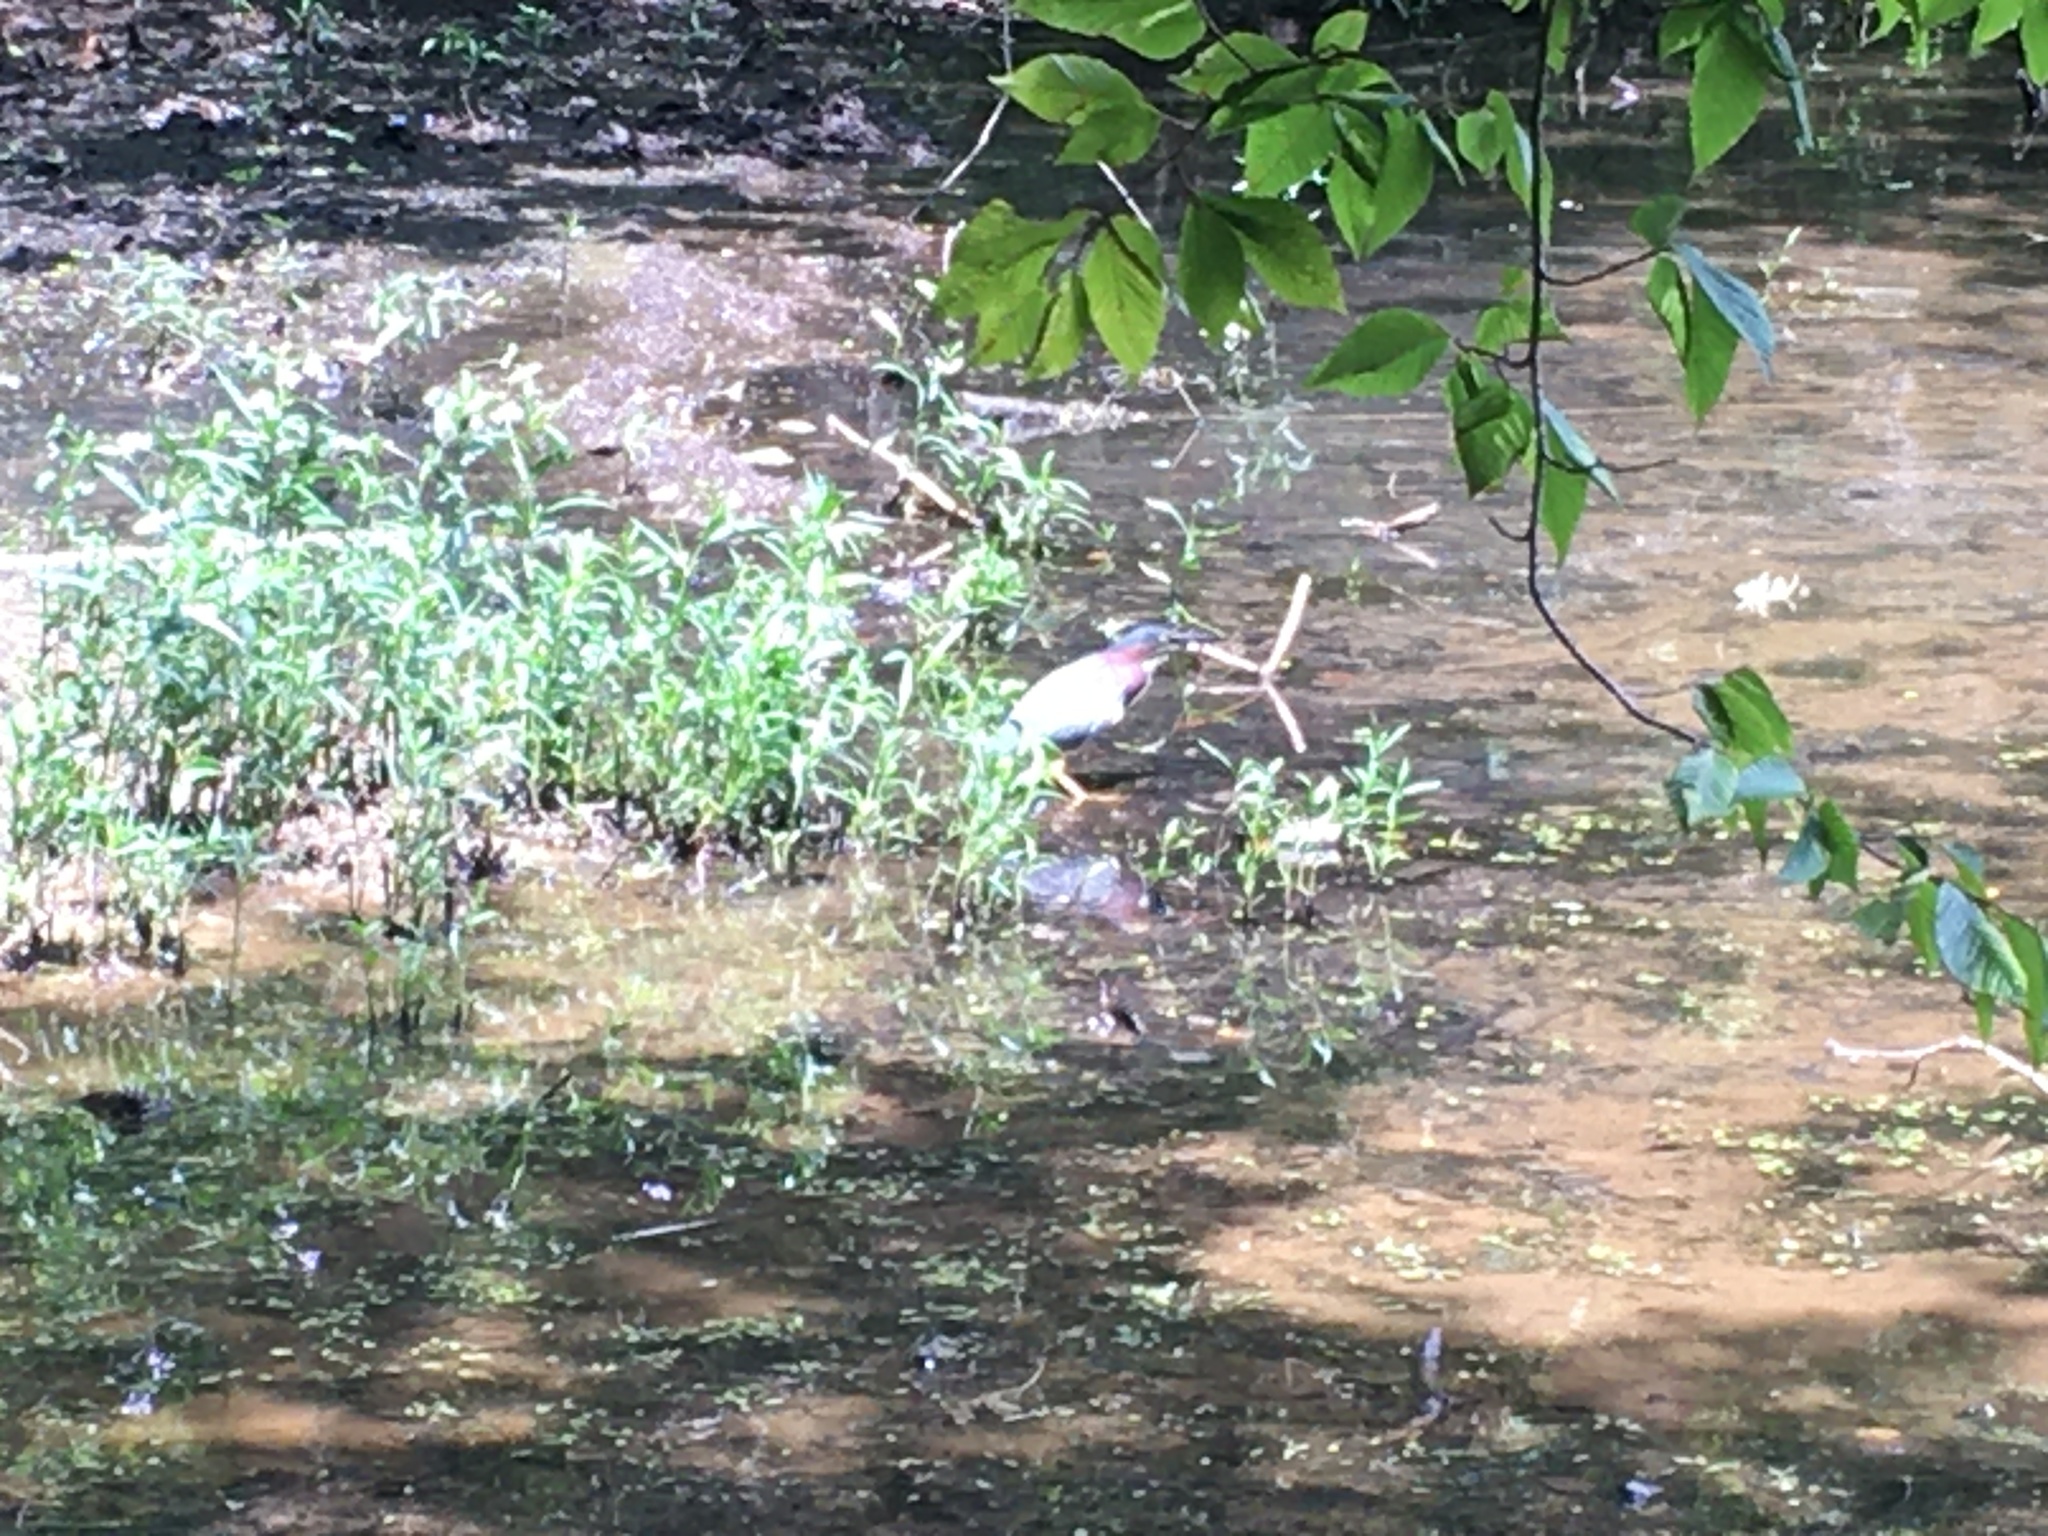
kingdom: Animalia
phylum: Chordata
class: Aves
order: Pelecaniformes
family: Ardeidae
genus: Butorides
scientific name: Butorides virescens
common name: Green heron
